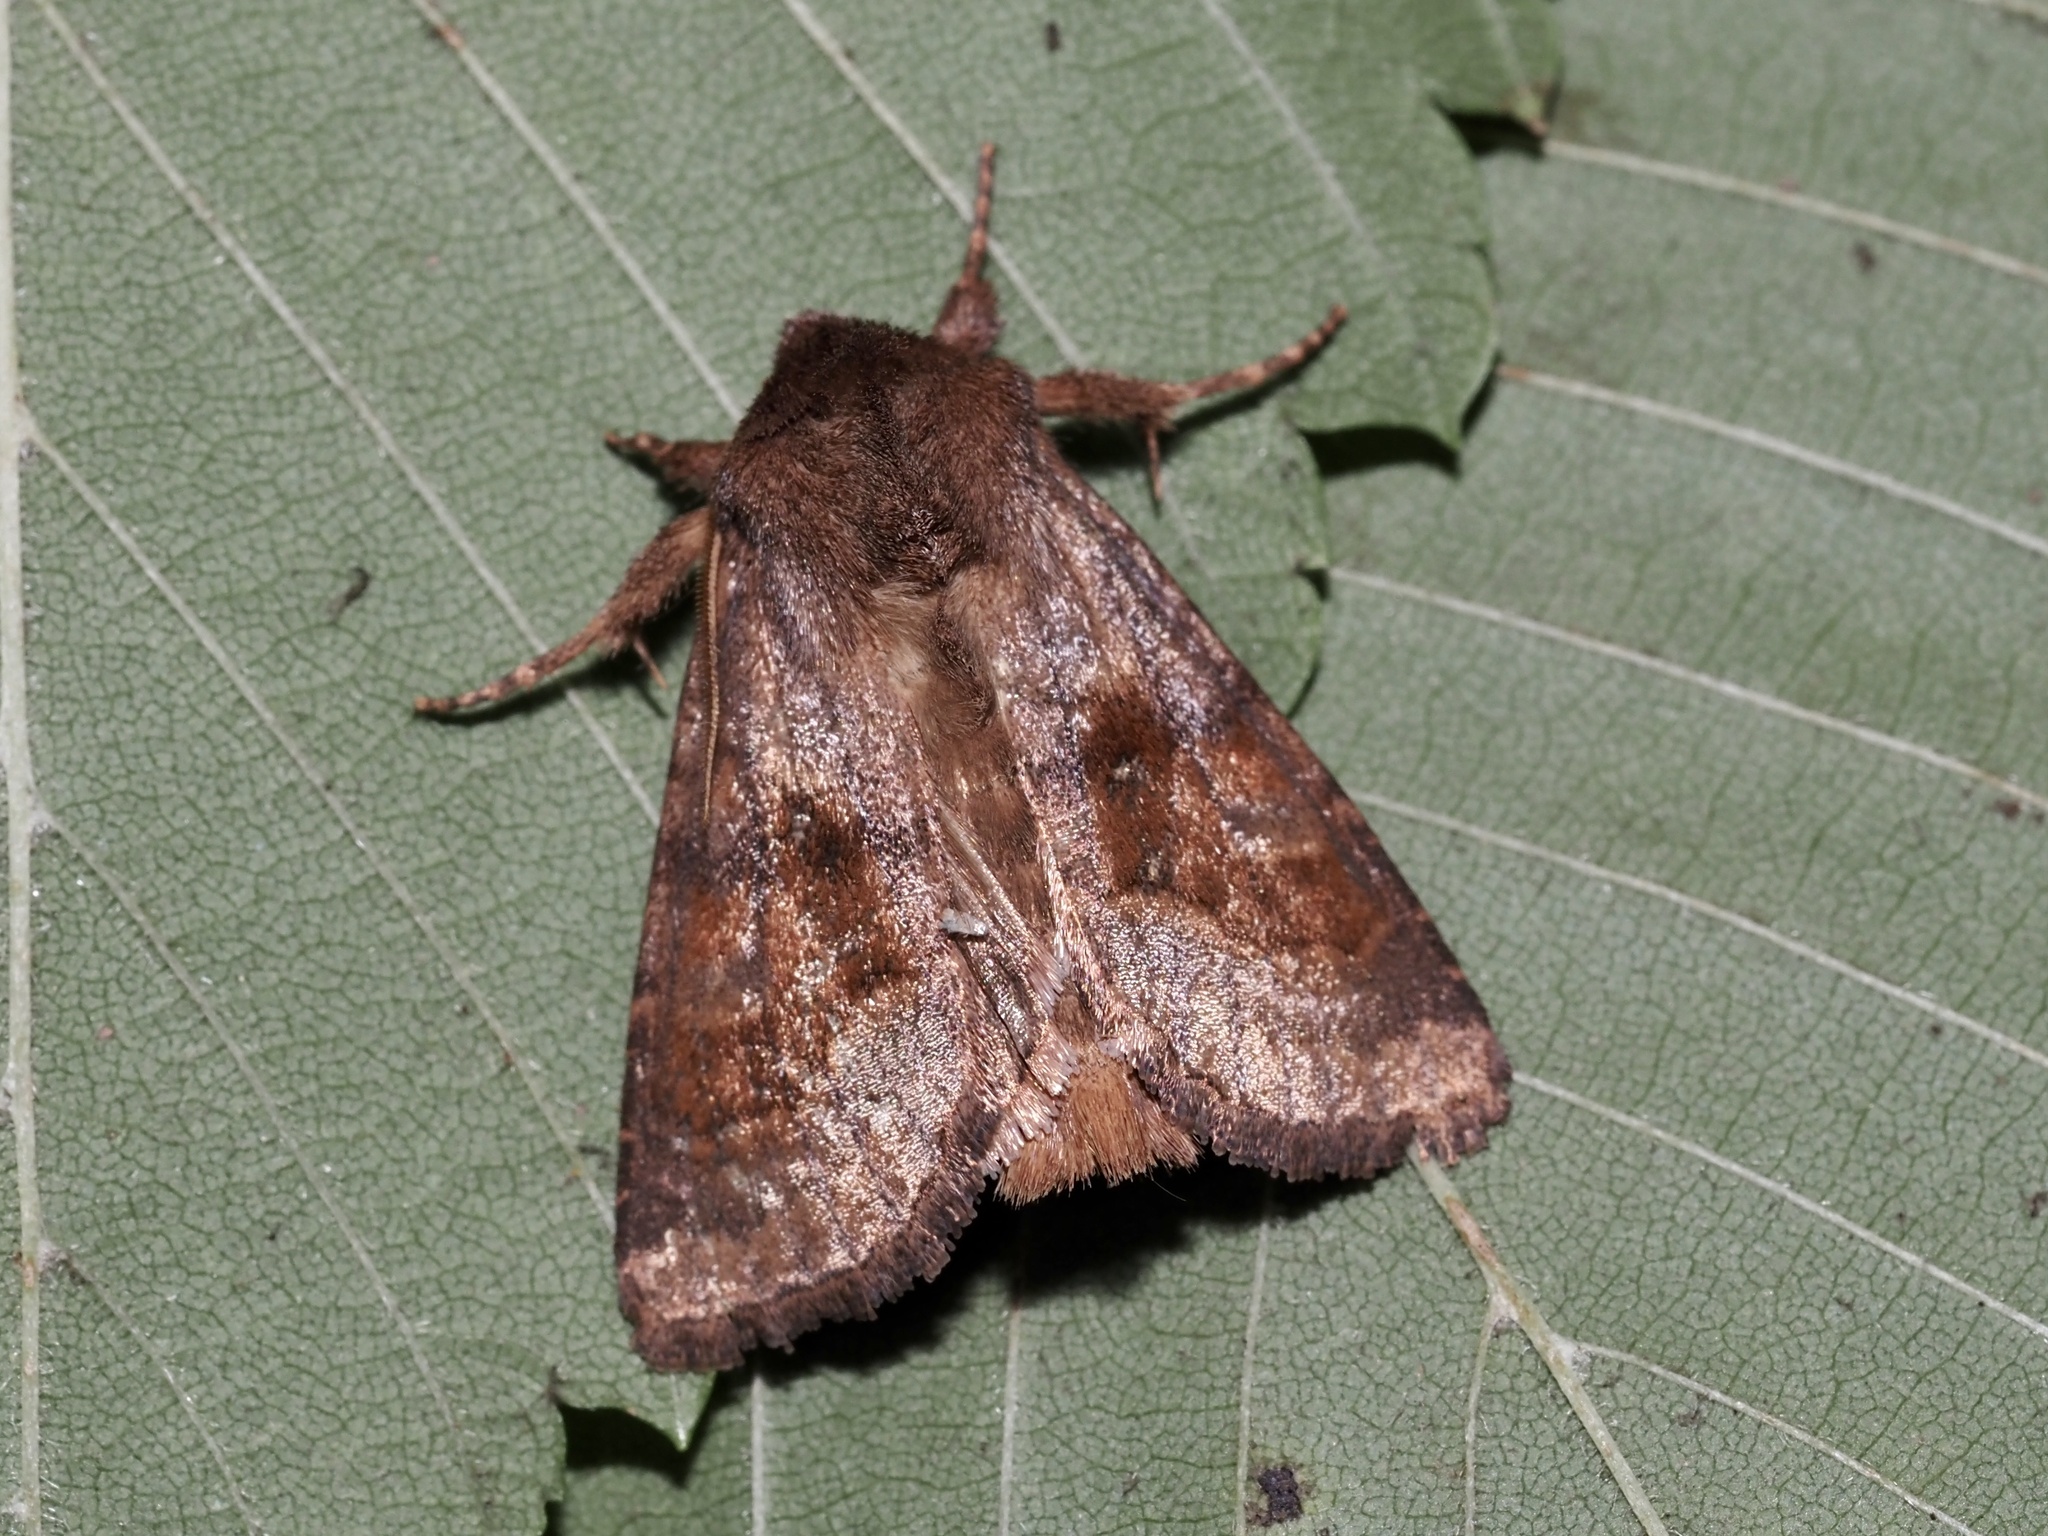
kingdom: Animalia
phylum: Arthropoda
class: Insecta
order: Lepidoptera
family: Noctuidae
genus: Nephelodes
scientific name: Nephelodes minians
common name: Bronzed cutworm
